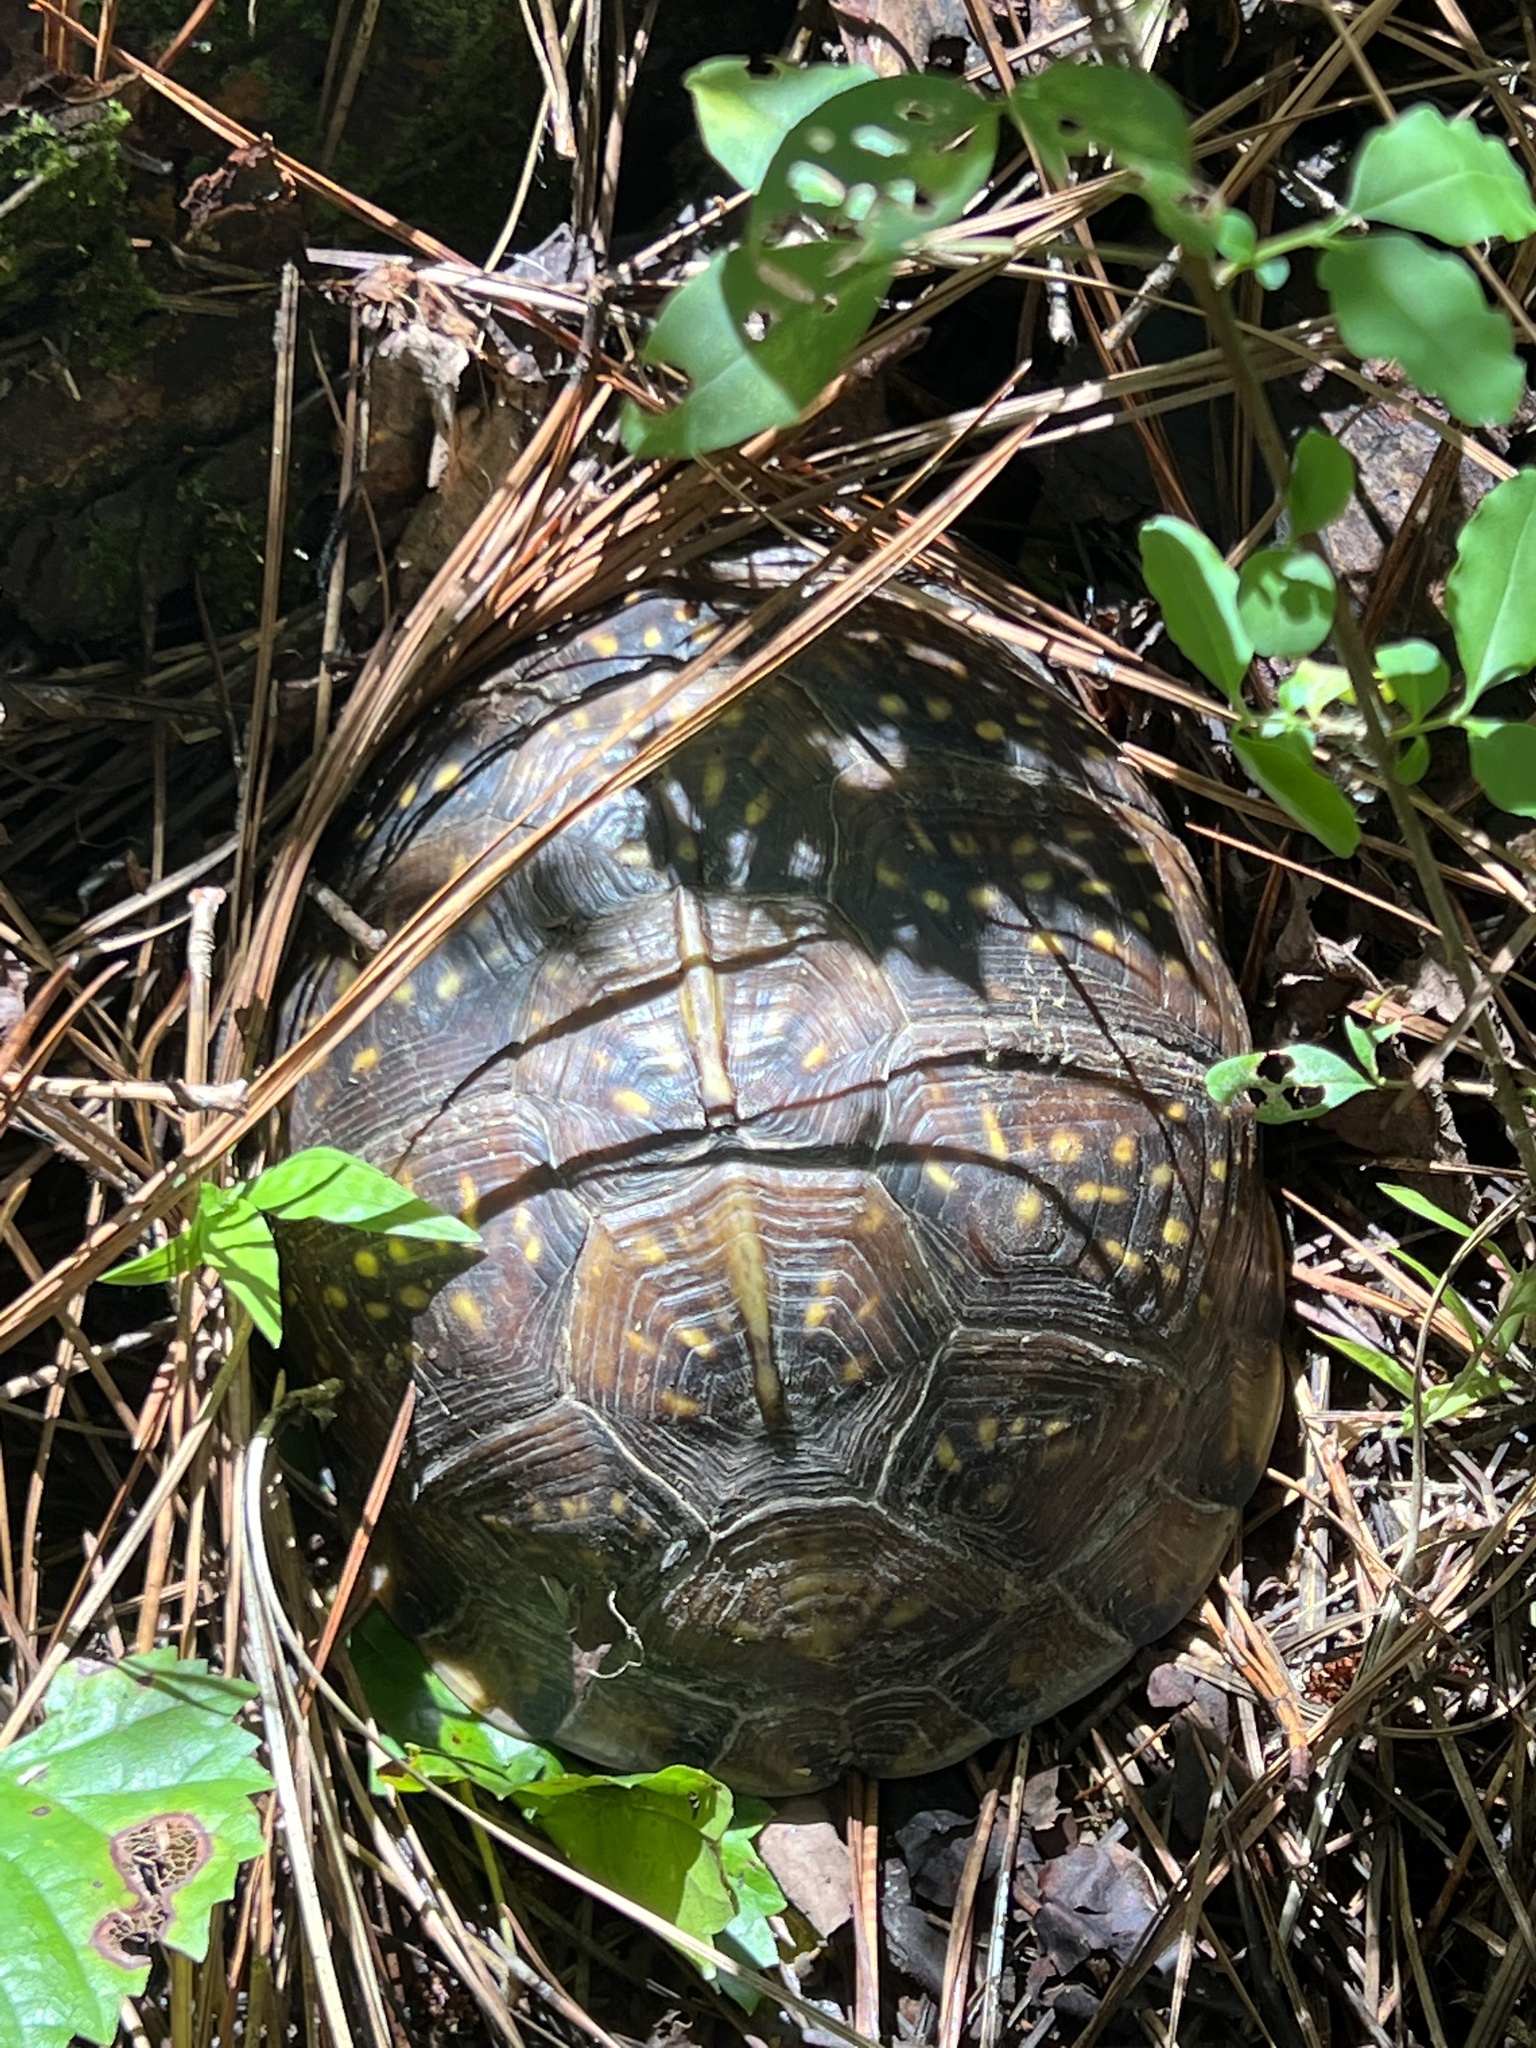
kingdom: Animalia
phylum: Chordata
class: Testudines
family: Emydidae
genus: Terrapene
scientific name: Terrapene carolina
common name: Common box turtle
